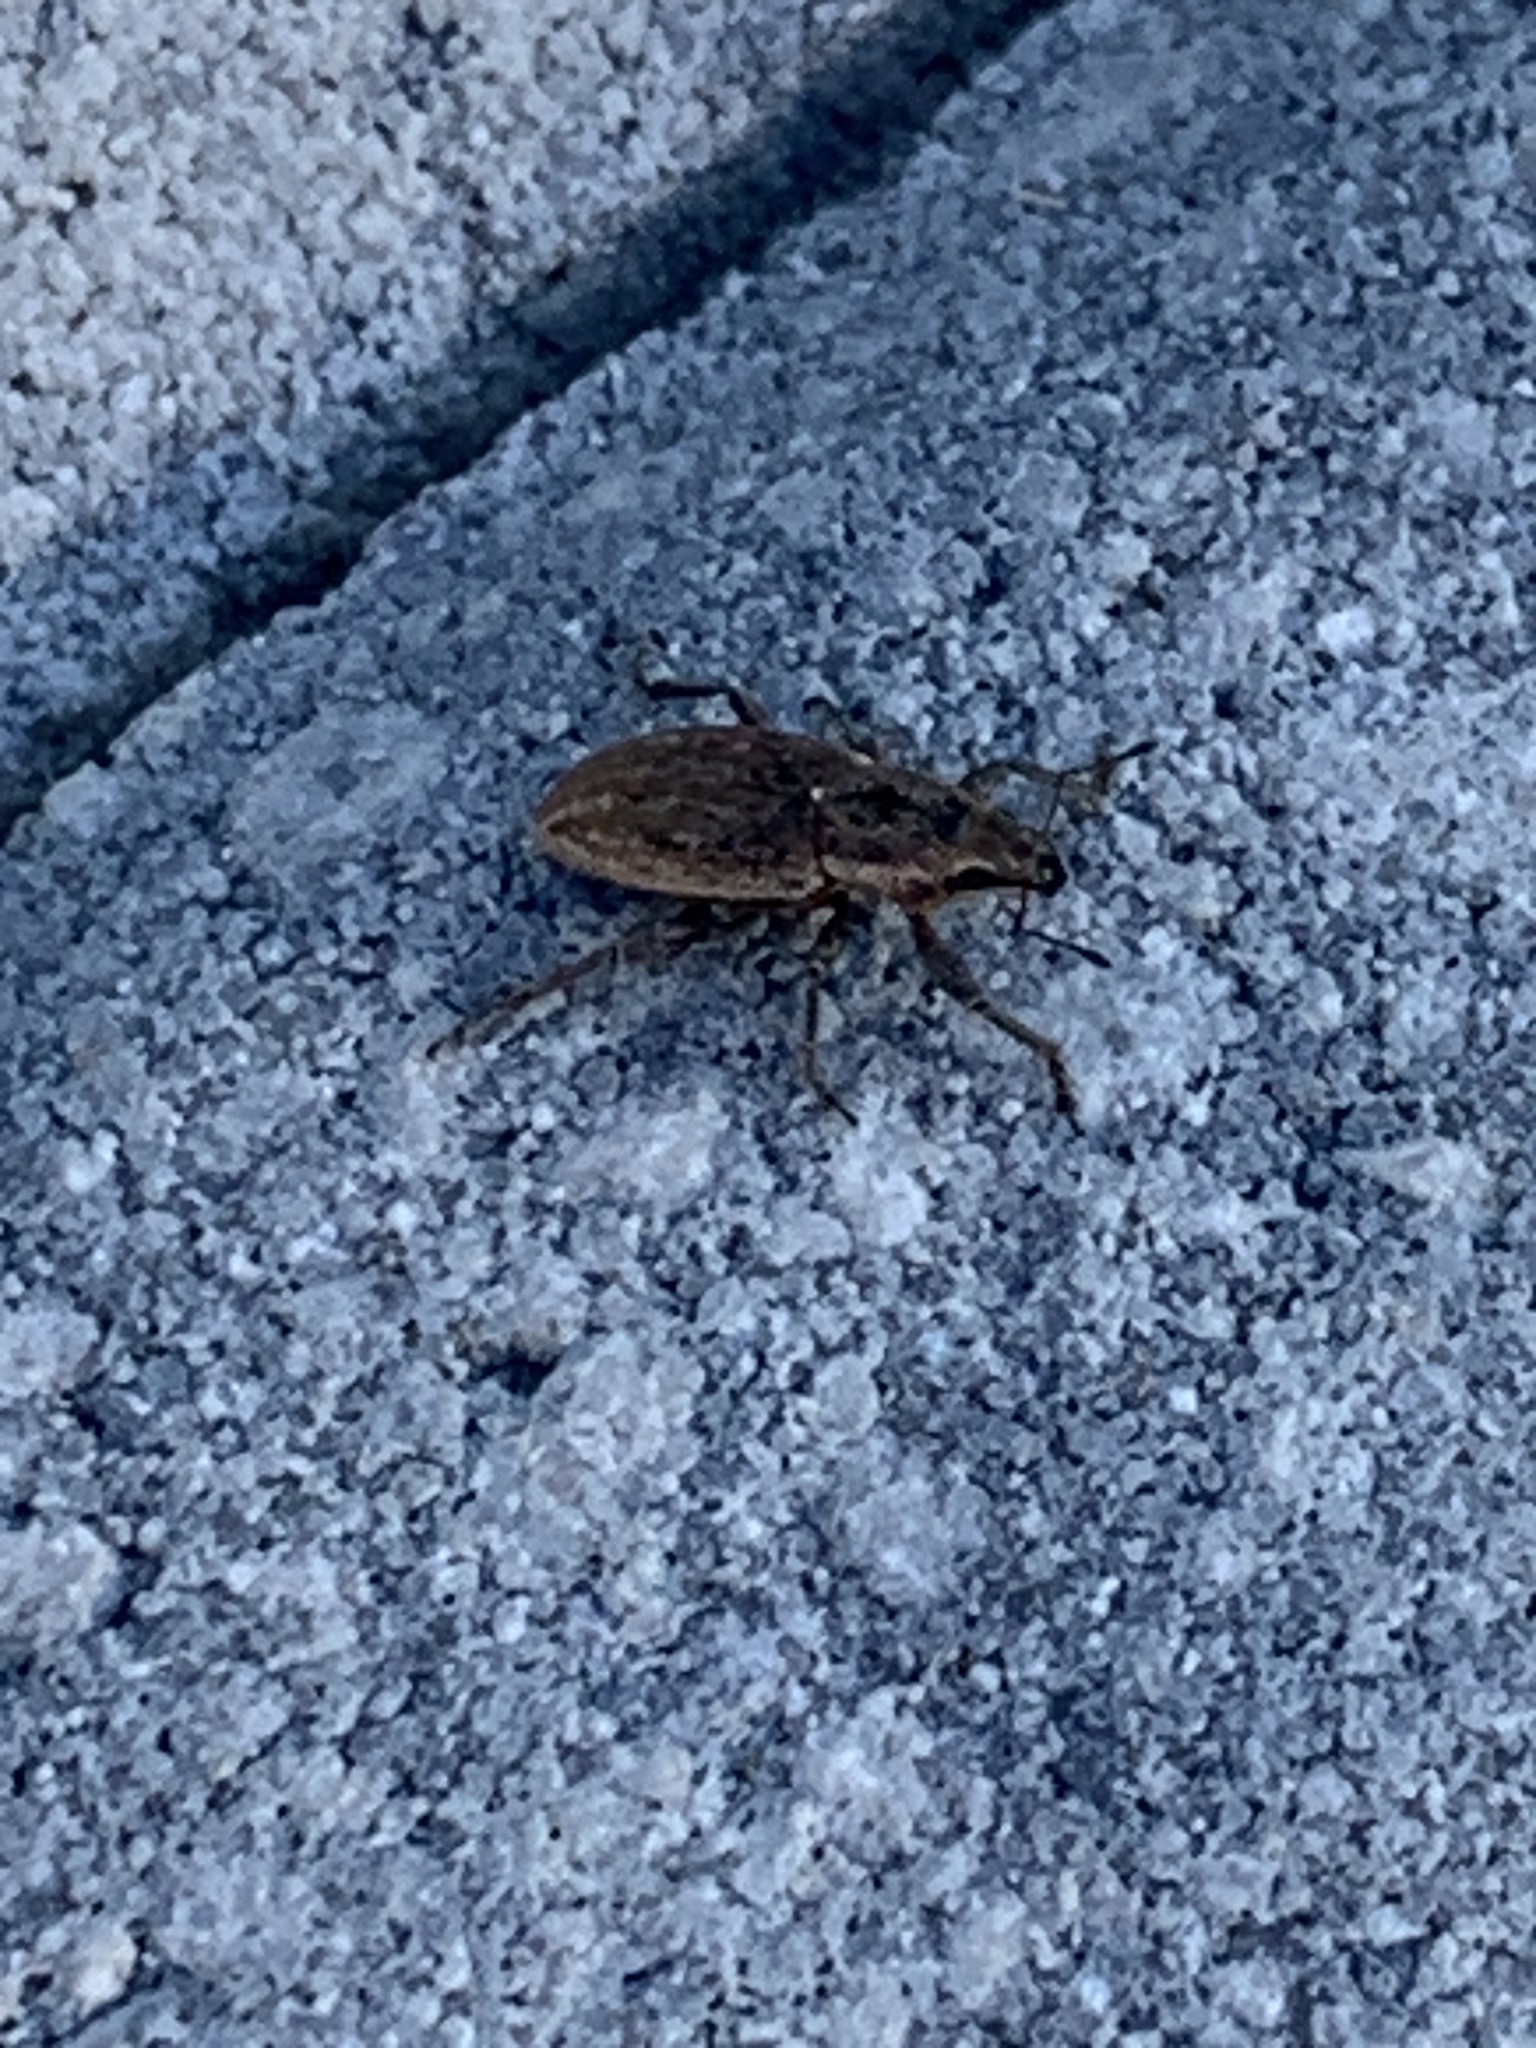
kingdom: Animalia
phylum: Arthropoda
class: Insecta
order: Coleoptera
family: Curculionidae
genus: Tanymecus
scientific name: Tanymecus lacaena
